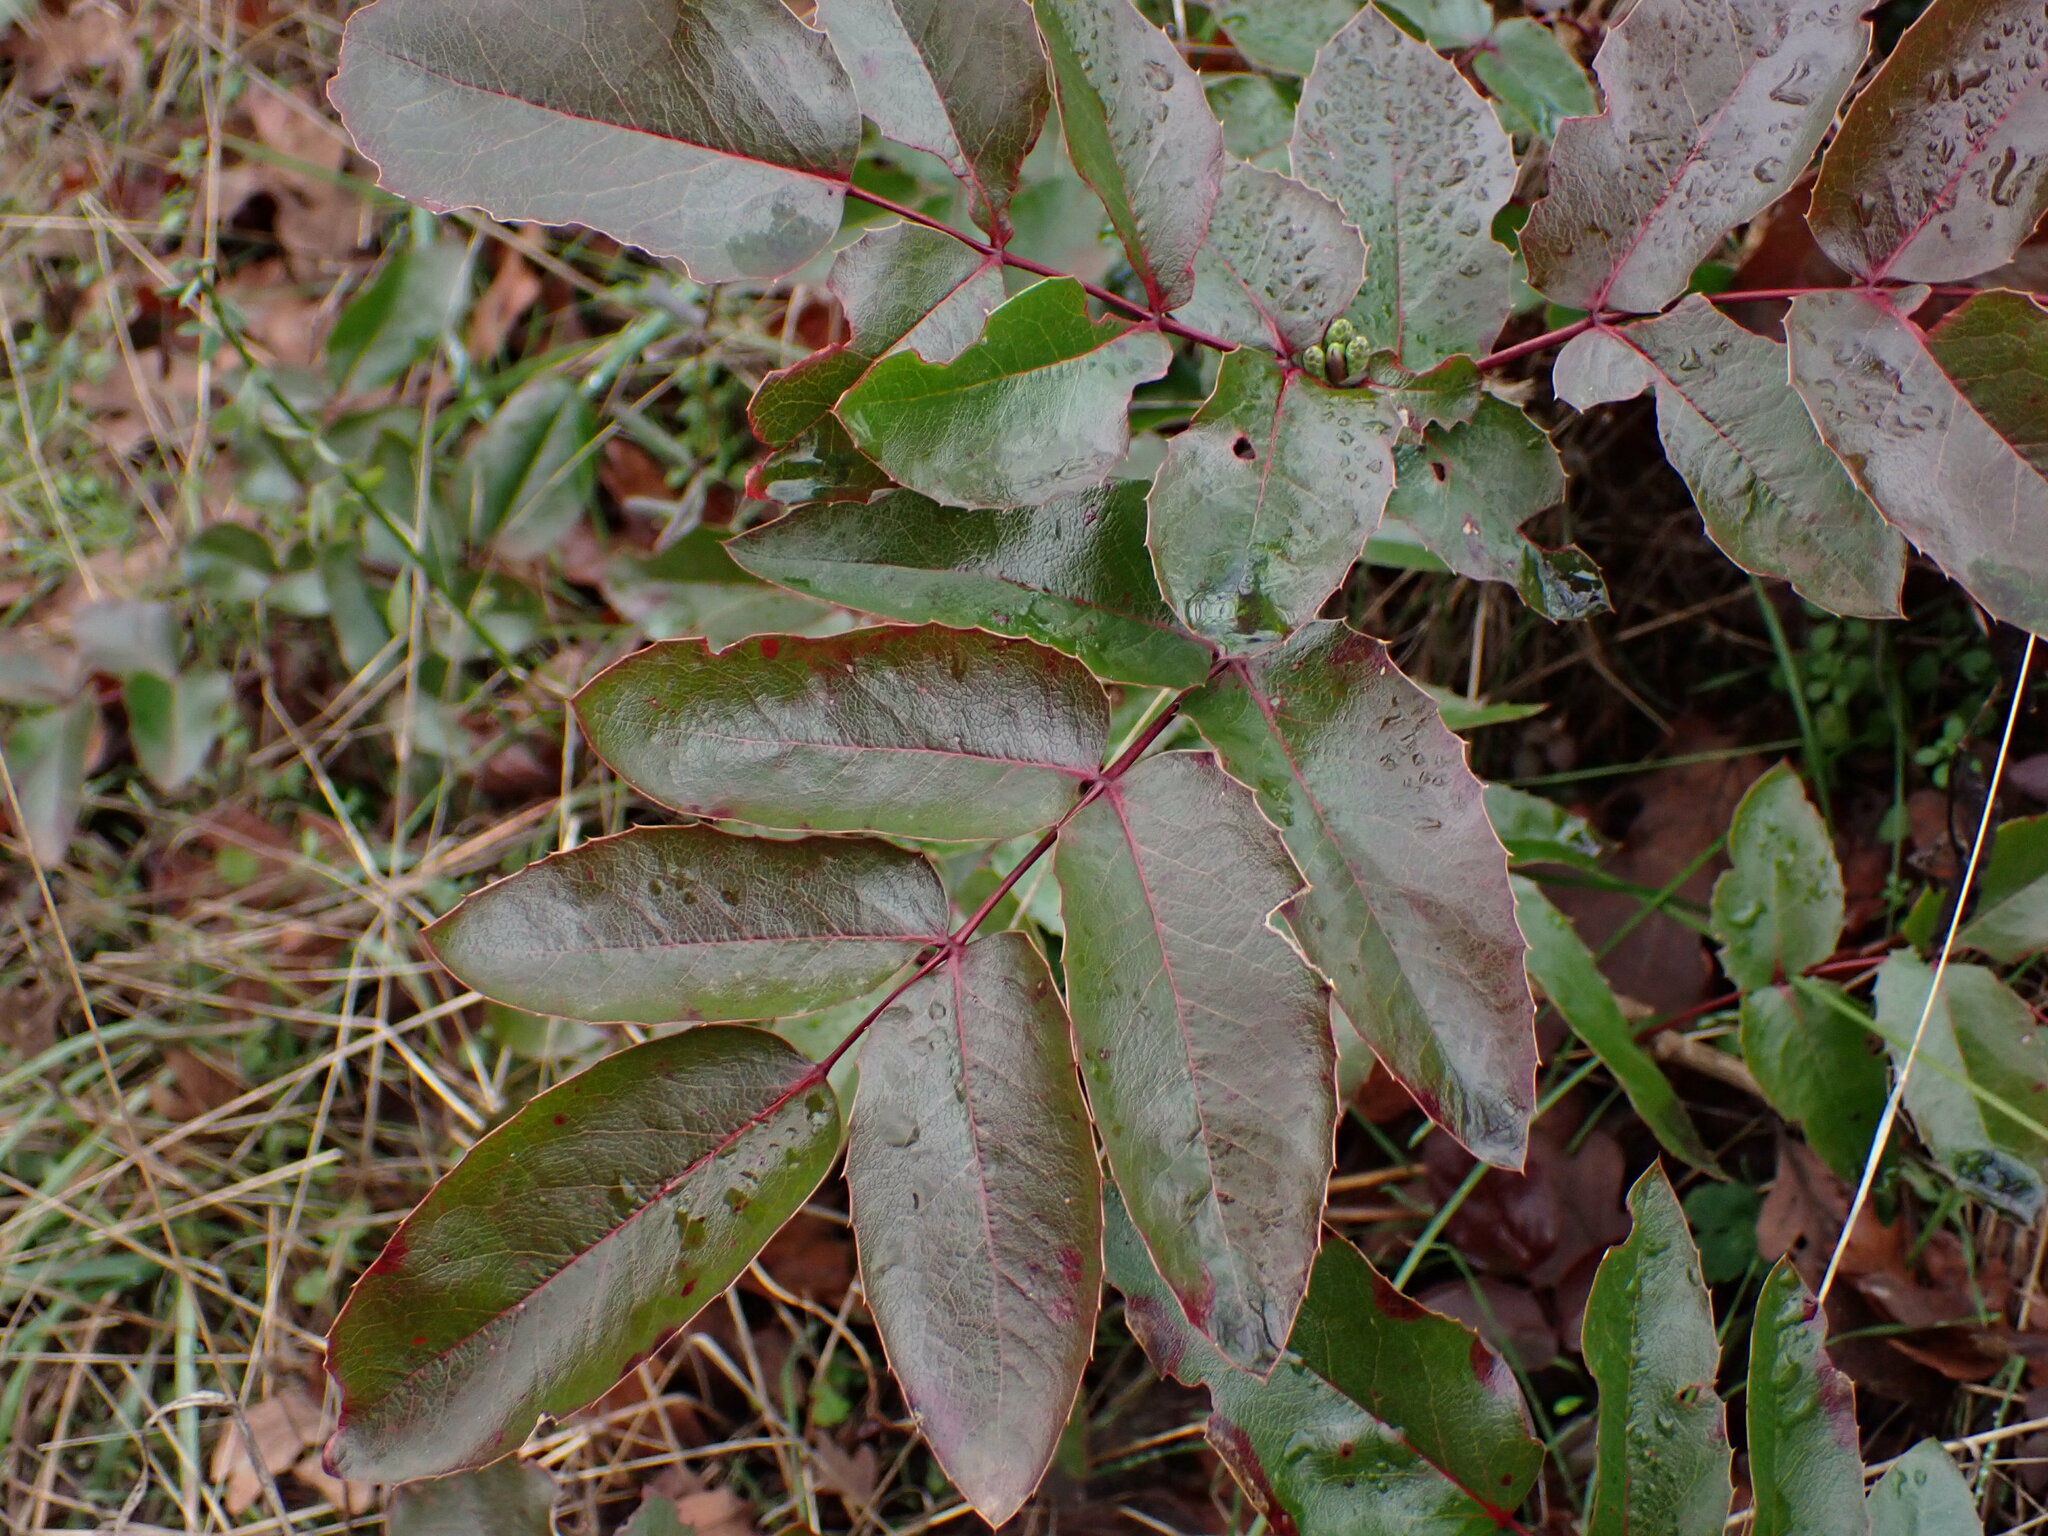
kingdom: Plantae
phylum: Tracheophyta
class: Magnoliopsida
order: Ranunculales
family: Berberidaceae
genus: Mahonia
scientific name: Mahonia aquifolium
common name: Oregon-grape
